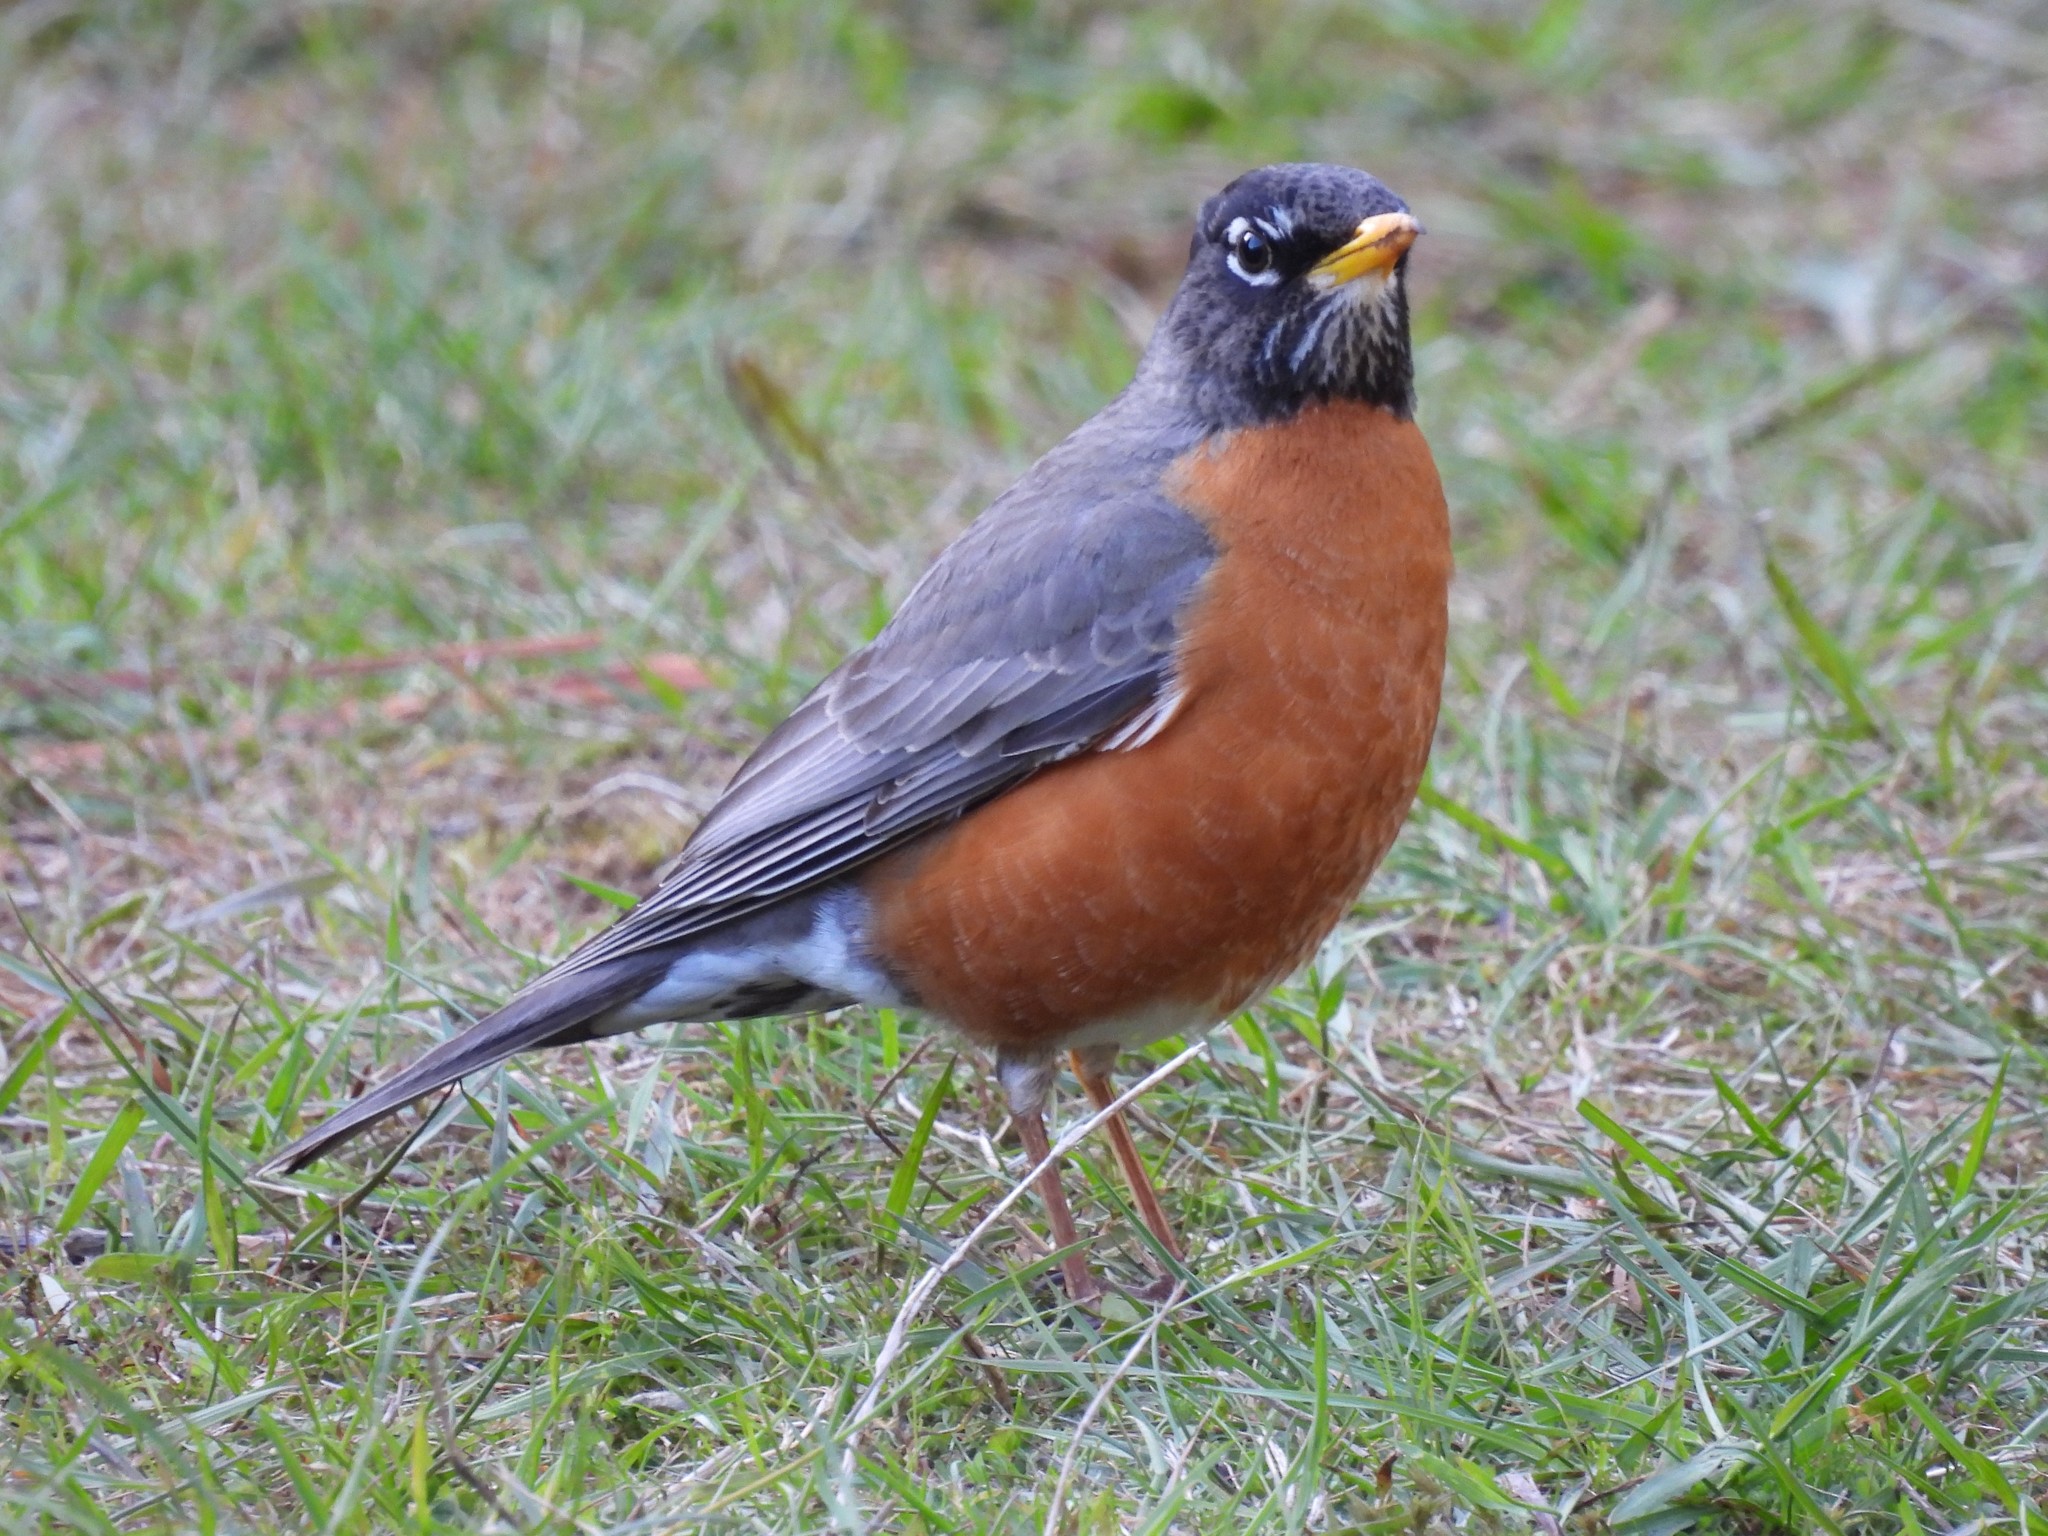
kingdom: Animalia
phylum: Chordata
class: Aves
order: Passeriformes
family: Turdidae
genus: Turdus
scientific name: Turdus migratorius
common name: American robin
